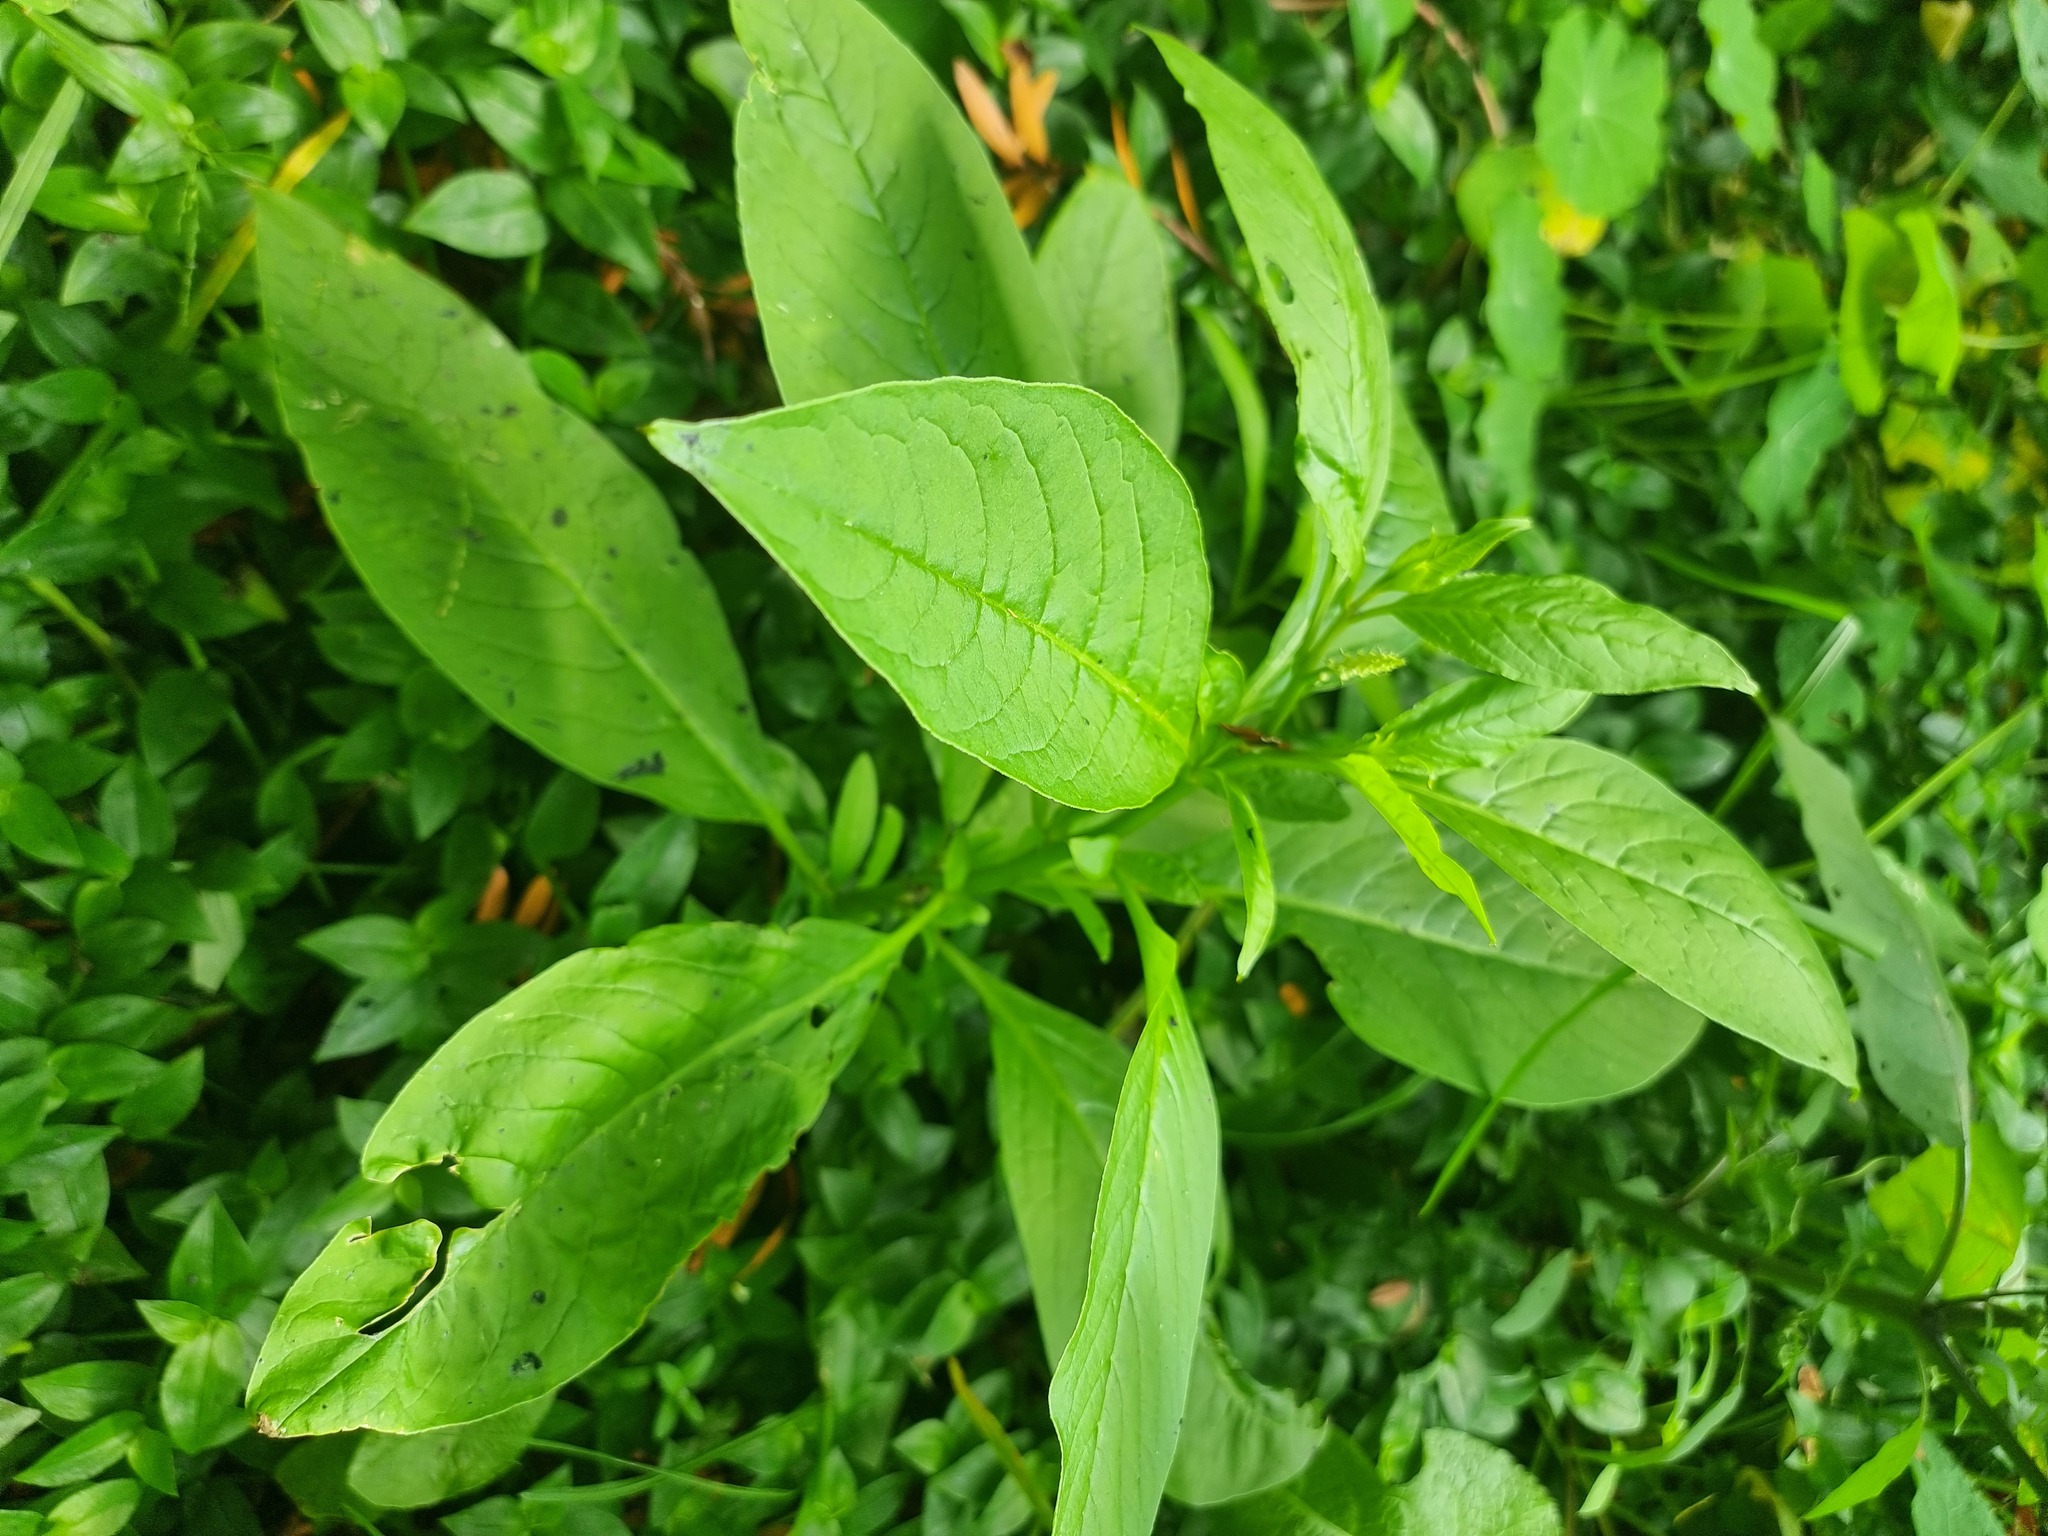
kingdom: Plantae
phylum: Tracheophyta
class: Magnoliopsida
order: Caryophyllales
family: Phytolaccaceae
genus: Phytolacca
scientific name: Phytolacca icosandra
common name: Button pokeweed
